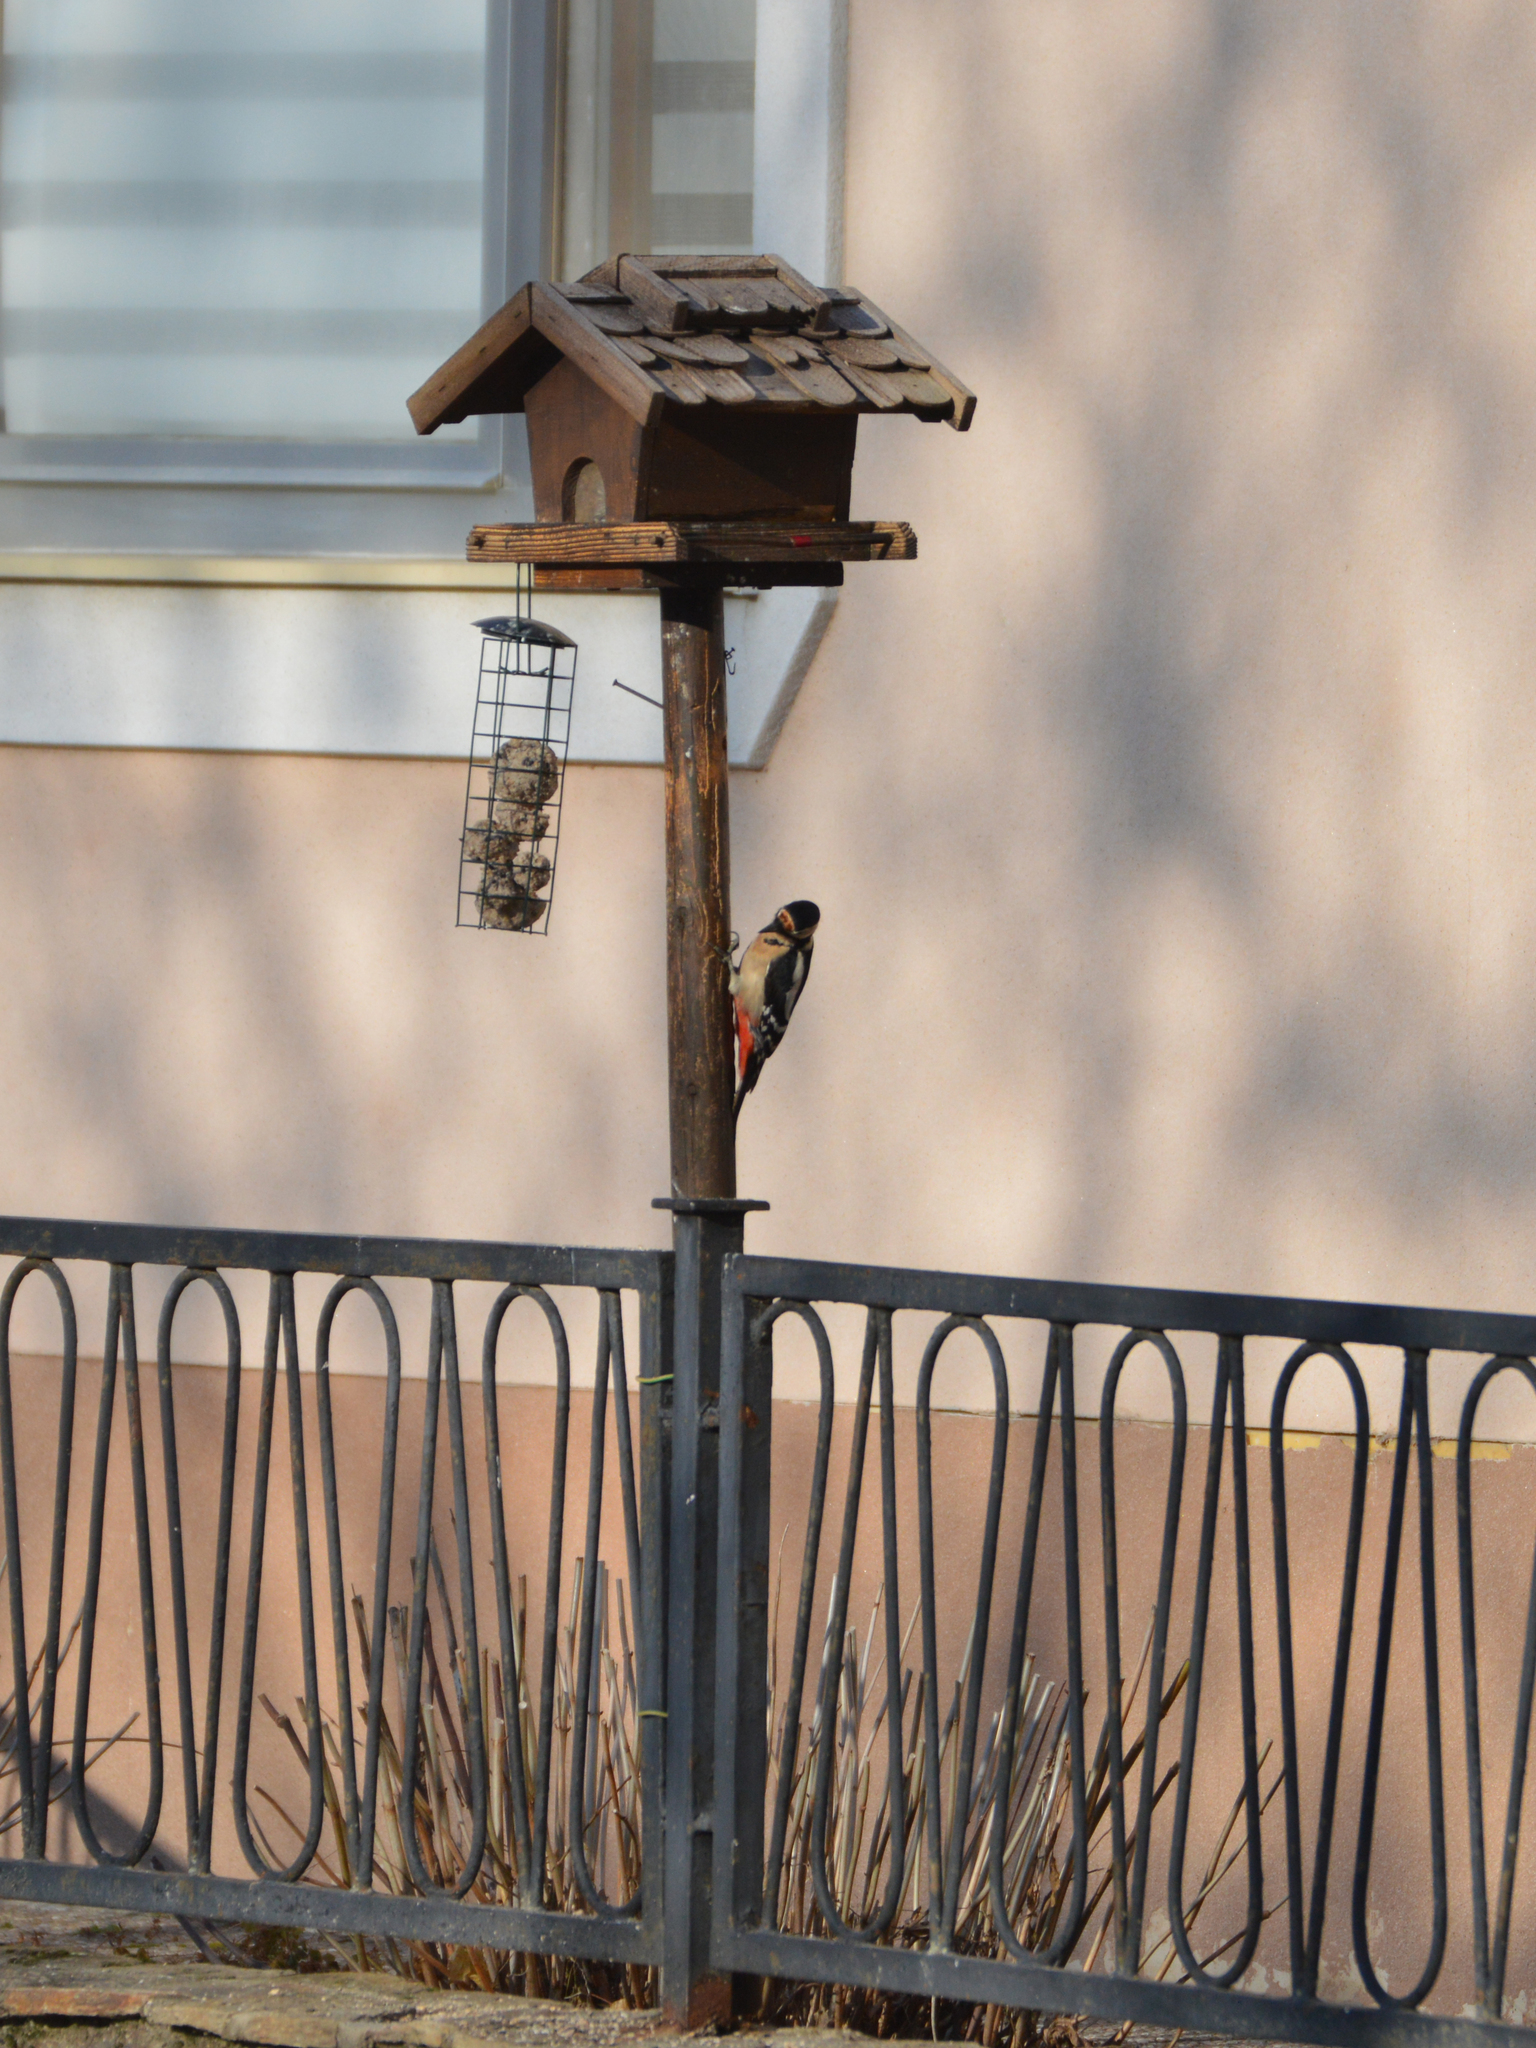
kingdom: Animalia
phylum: Chordata
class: Aves
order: Piciformes
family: Picidae
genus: Dendrocopos
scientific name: Dendrocopos major
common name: Great spotted woodpecker
